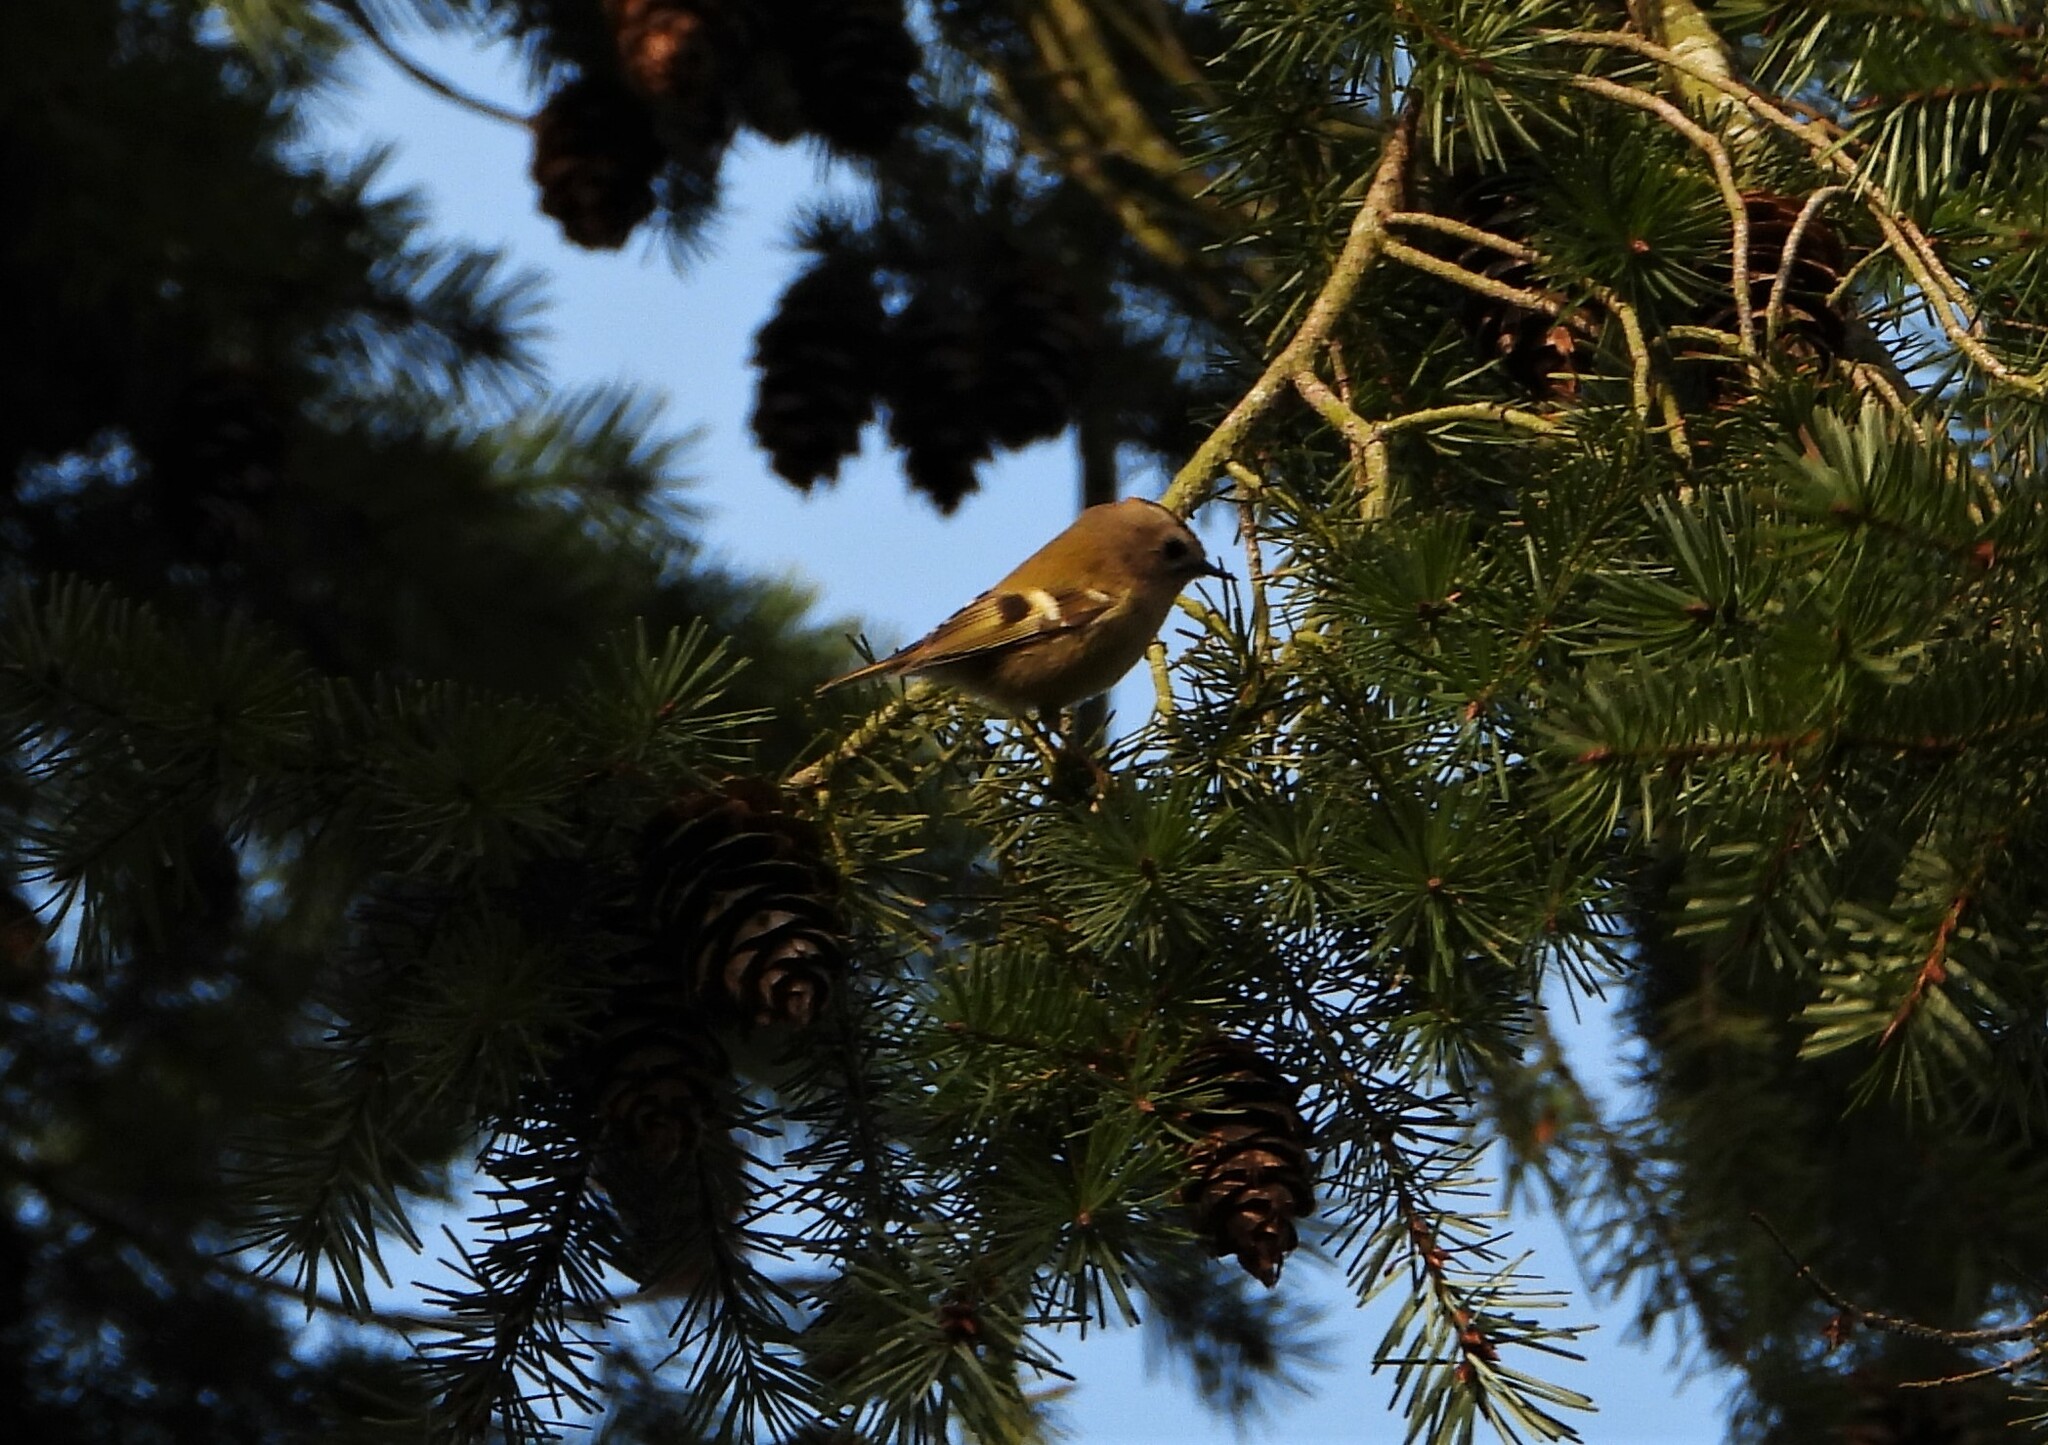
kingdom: Animalia
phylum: Chordata
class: Aves
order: Passeriformes
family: Regulidae
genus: Regulus
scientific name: Regulus regulus
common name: Goldcrest
